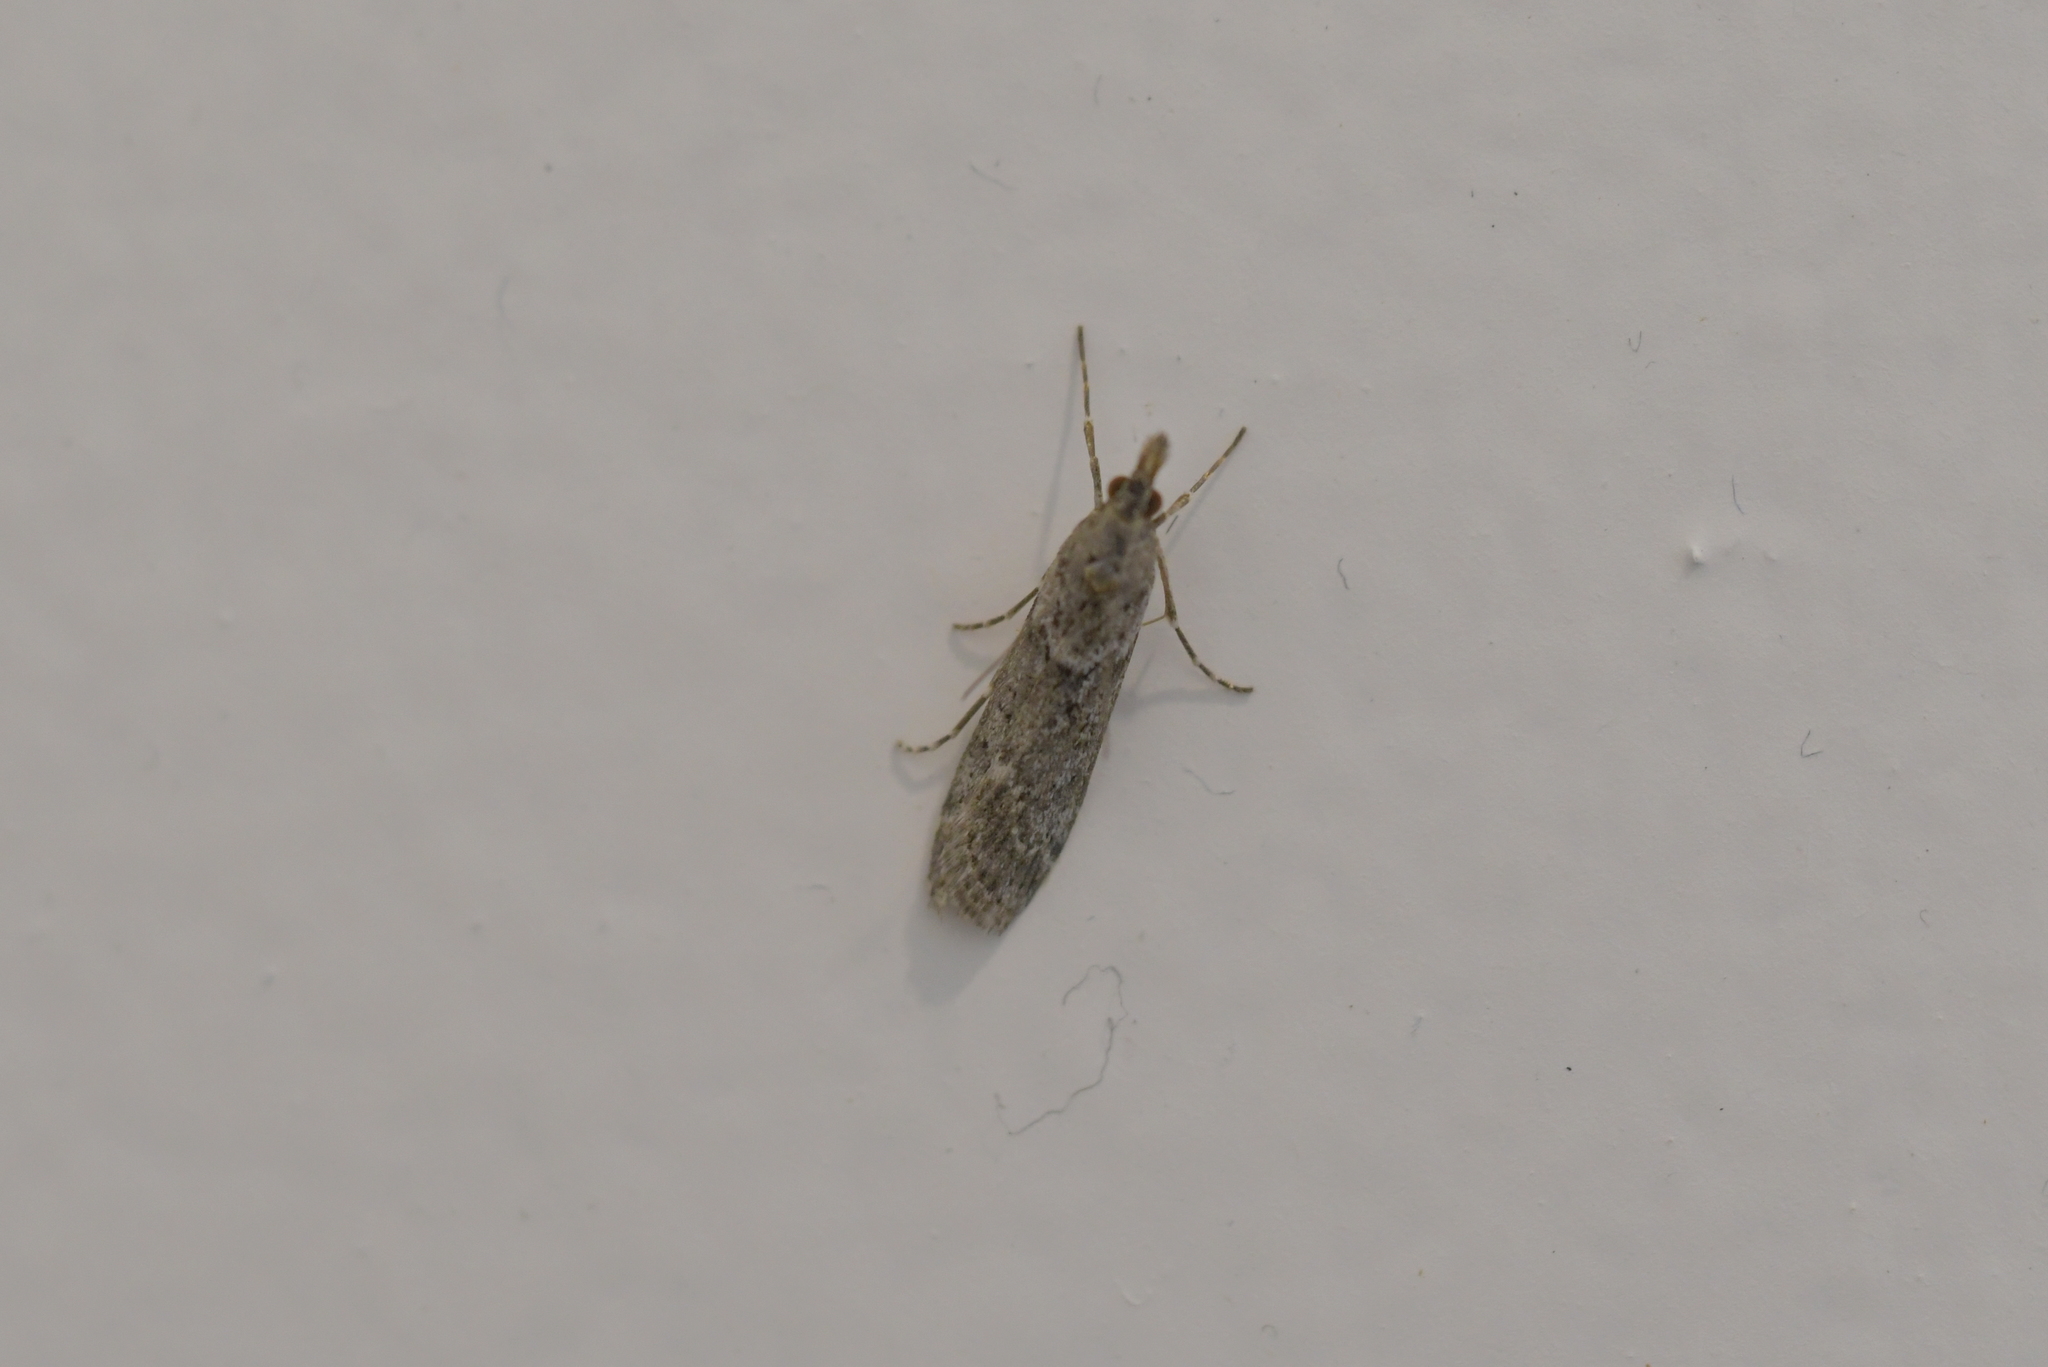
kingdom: Animalia
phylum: Arthropoda
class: Insecta
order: Lepidoptera
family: Crambidae
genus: Eudonia
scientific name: Eudonia leptalea
